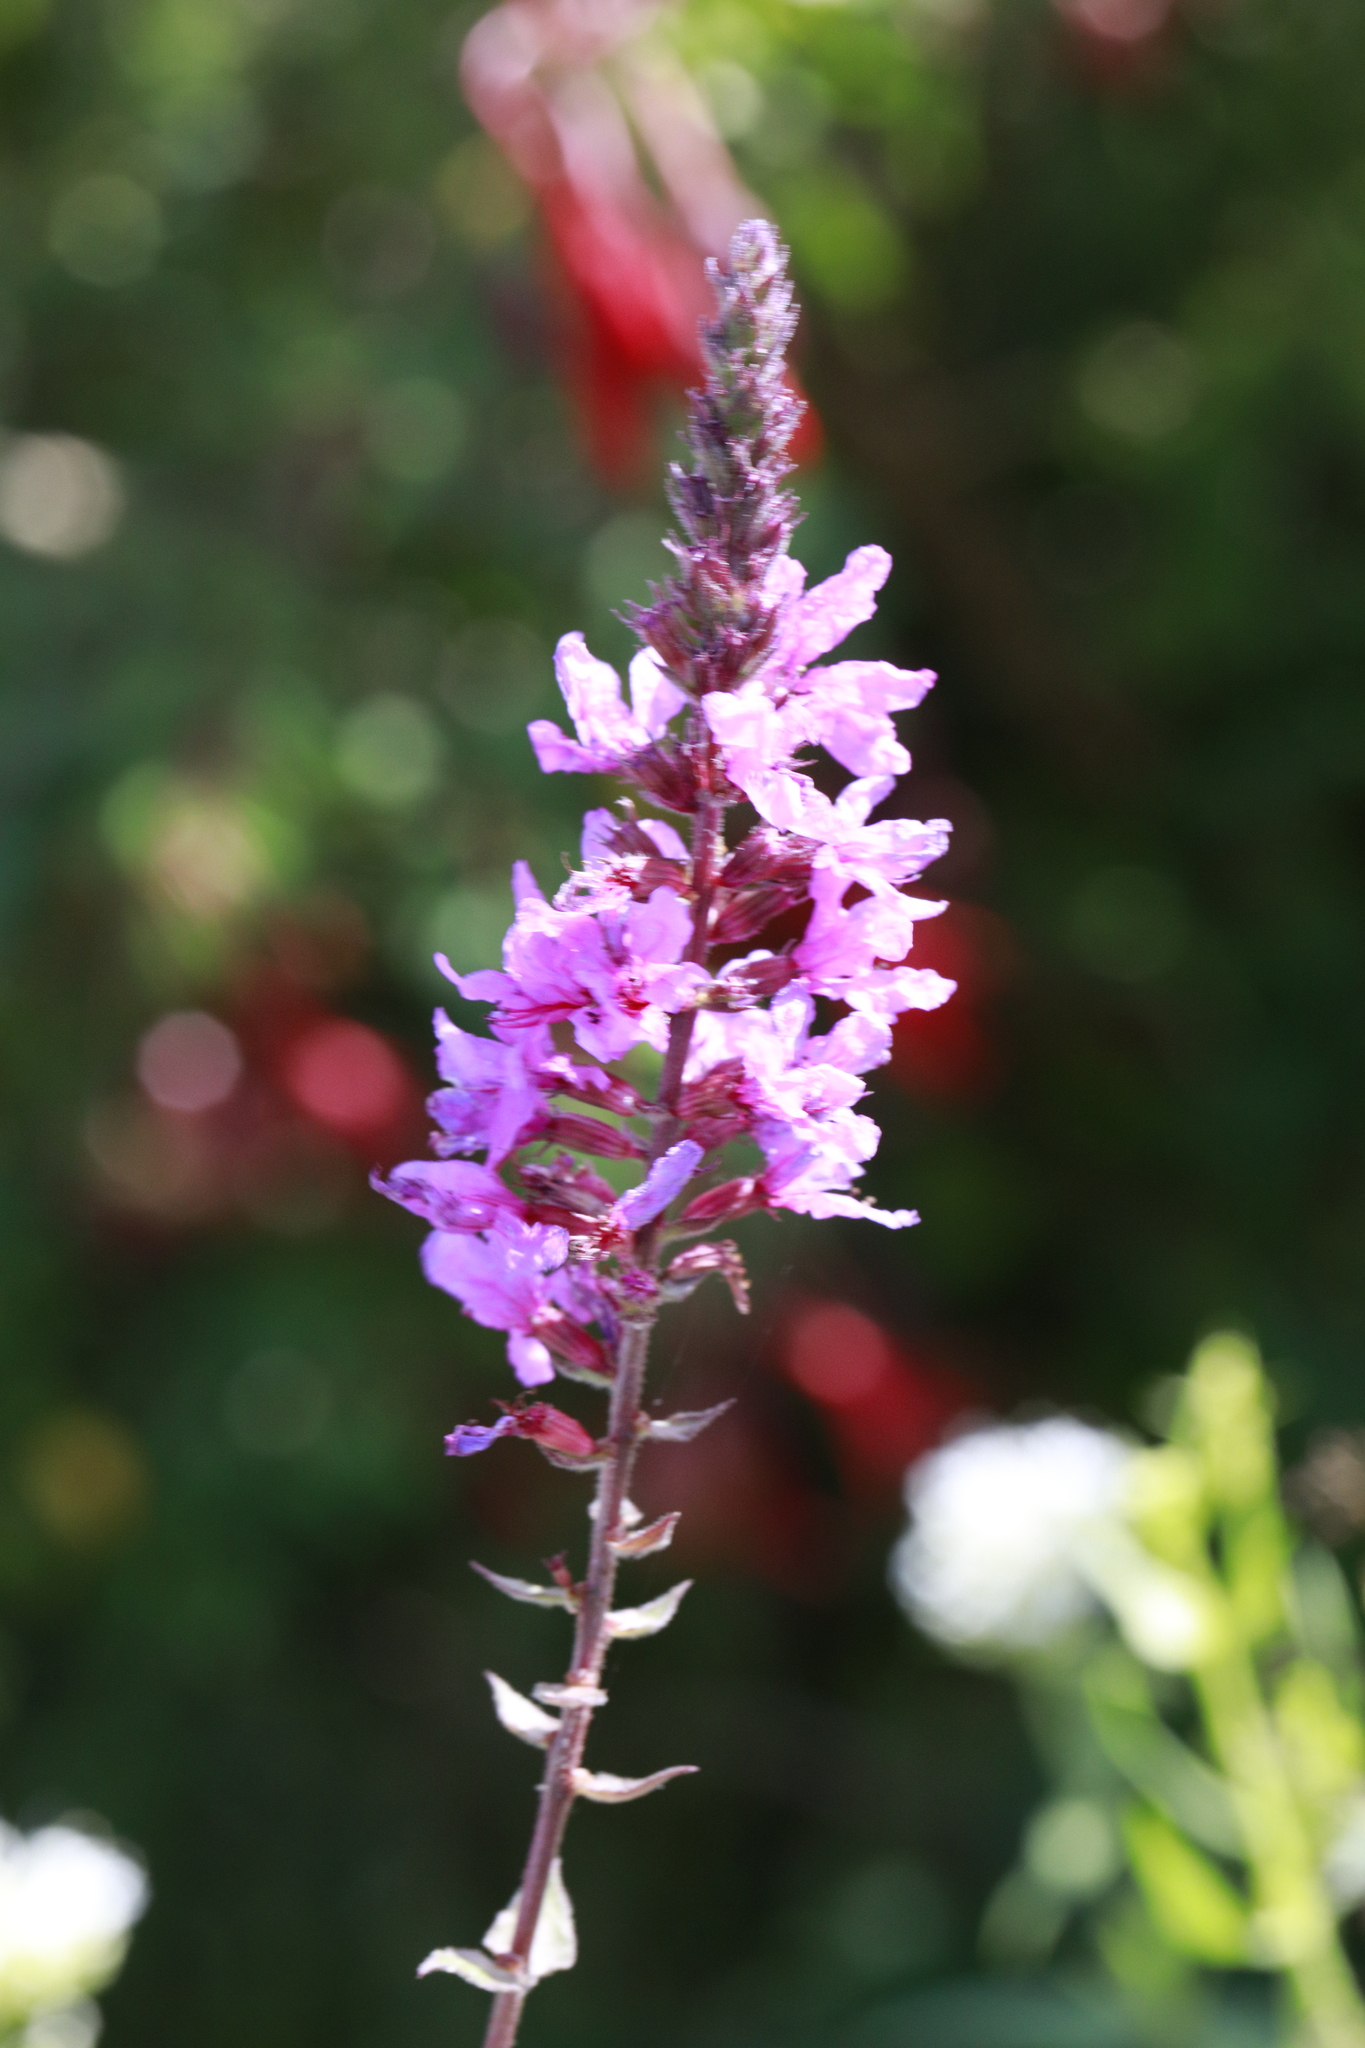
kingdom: Plantae
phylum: Tracheophyta
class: Magnoliopsida
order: Myrtales
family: Lythraceae
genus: Lythrum
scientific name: Lythrum salicaria
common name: Purple loosestrife
